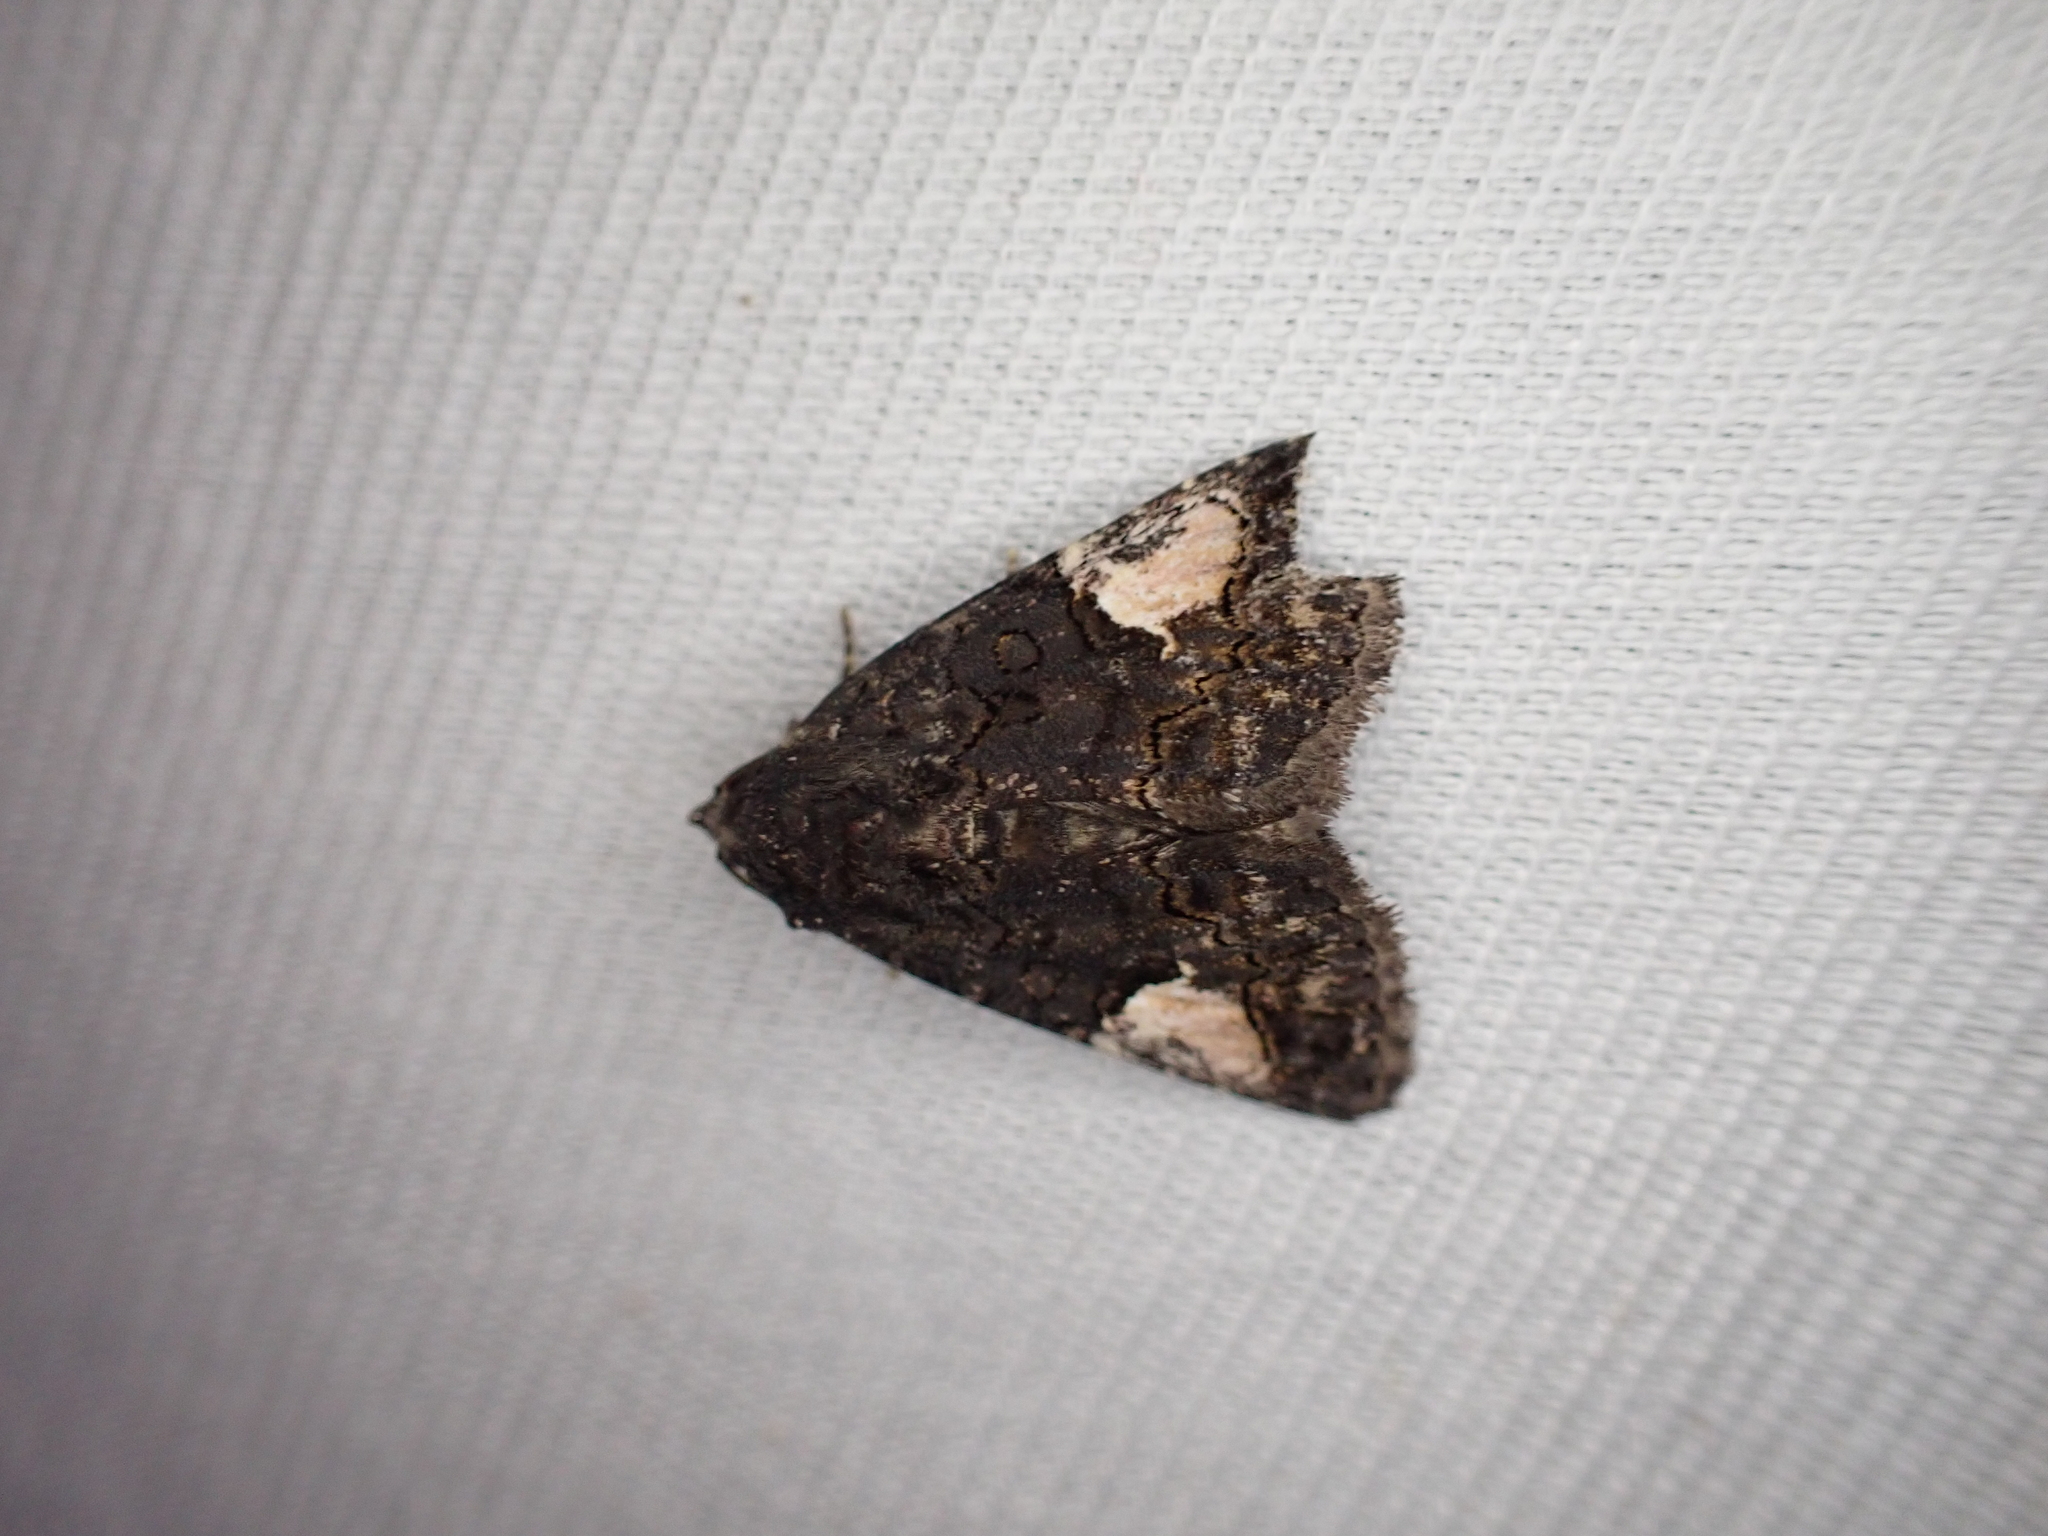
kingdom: Animalia
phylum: Arthropoda
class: Insecta
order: Lepidoptera
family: Noctuidae
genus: Aedia
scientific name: Aedia funesta
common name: The druid
